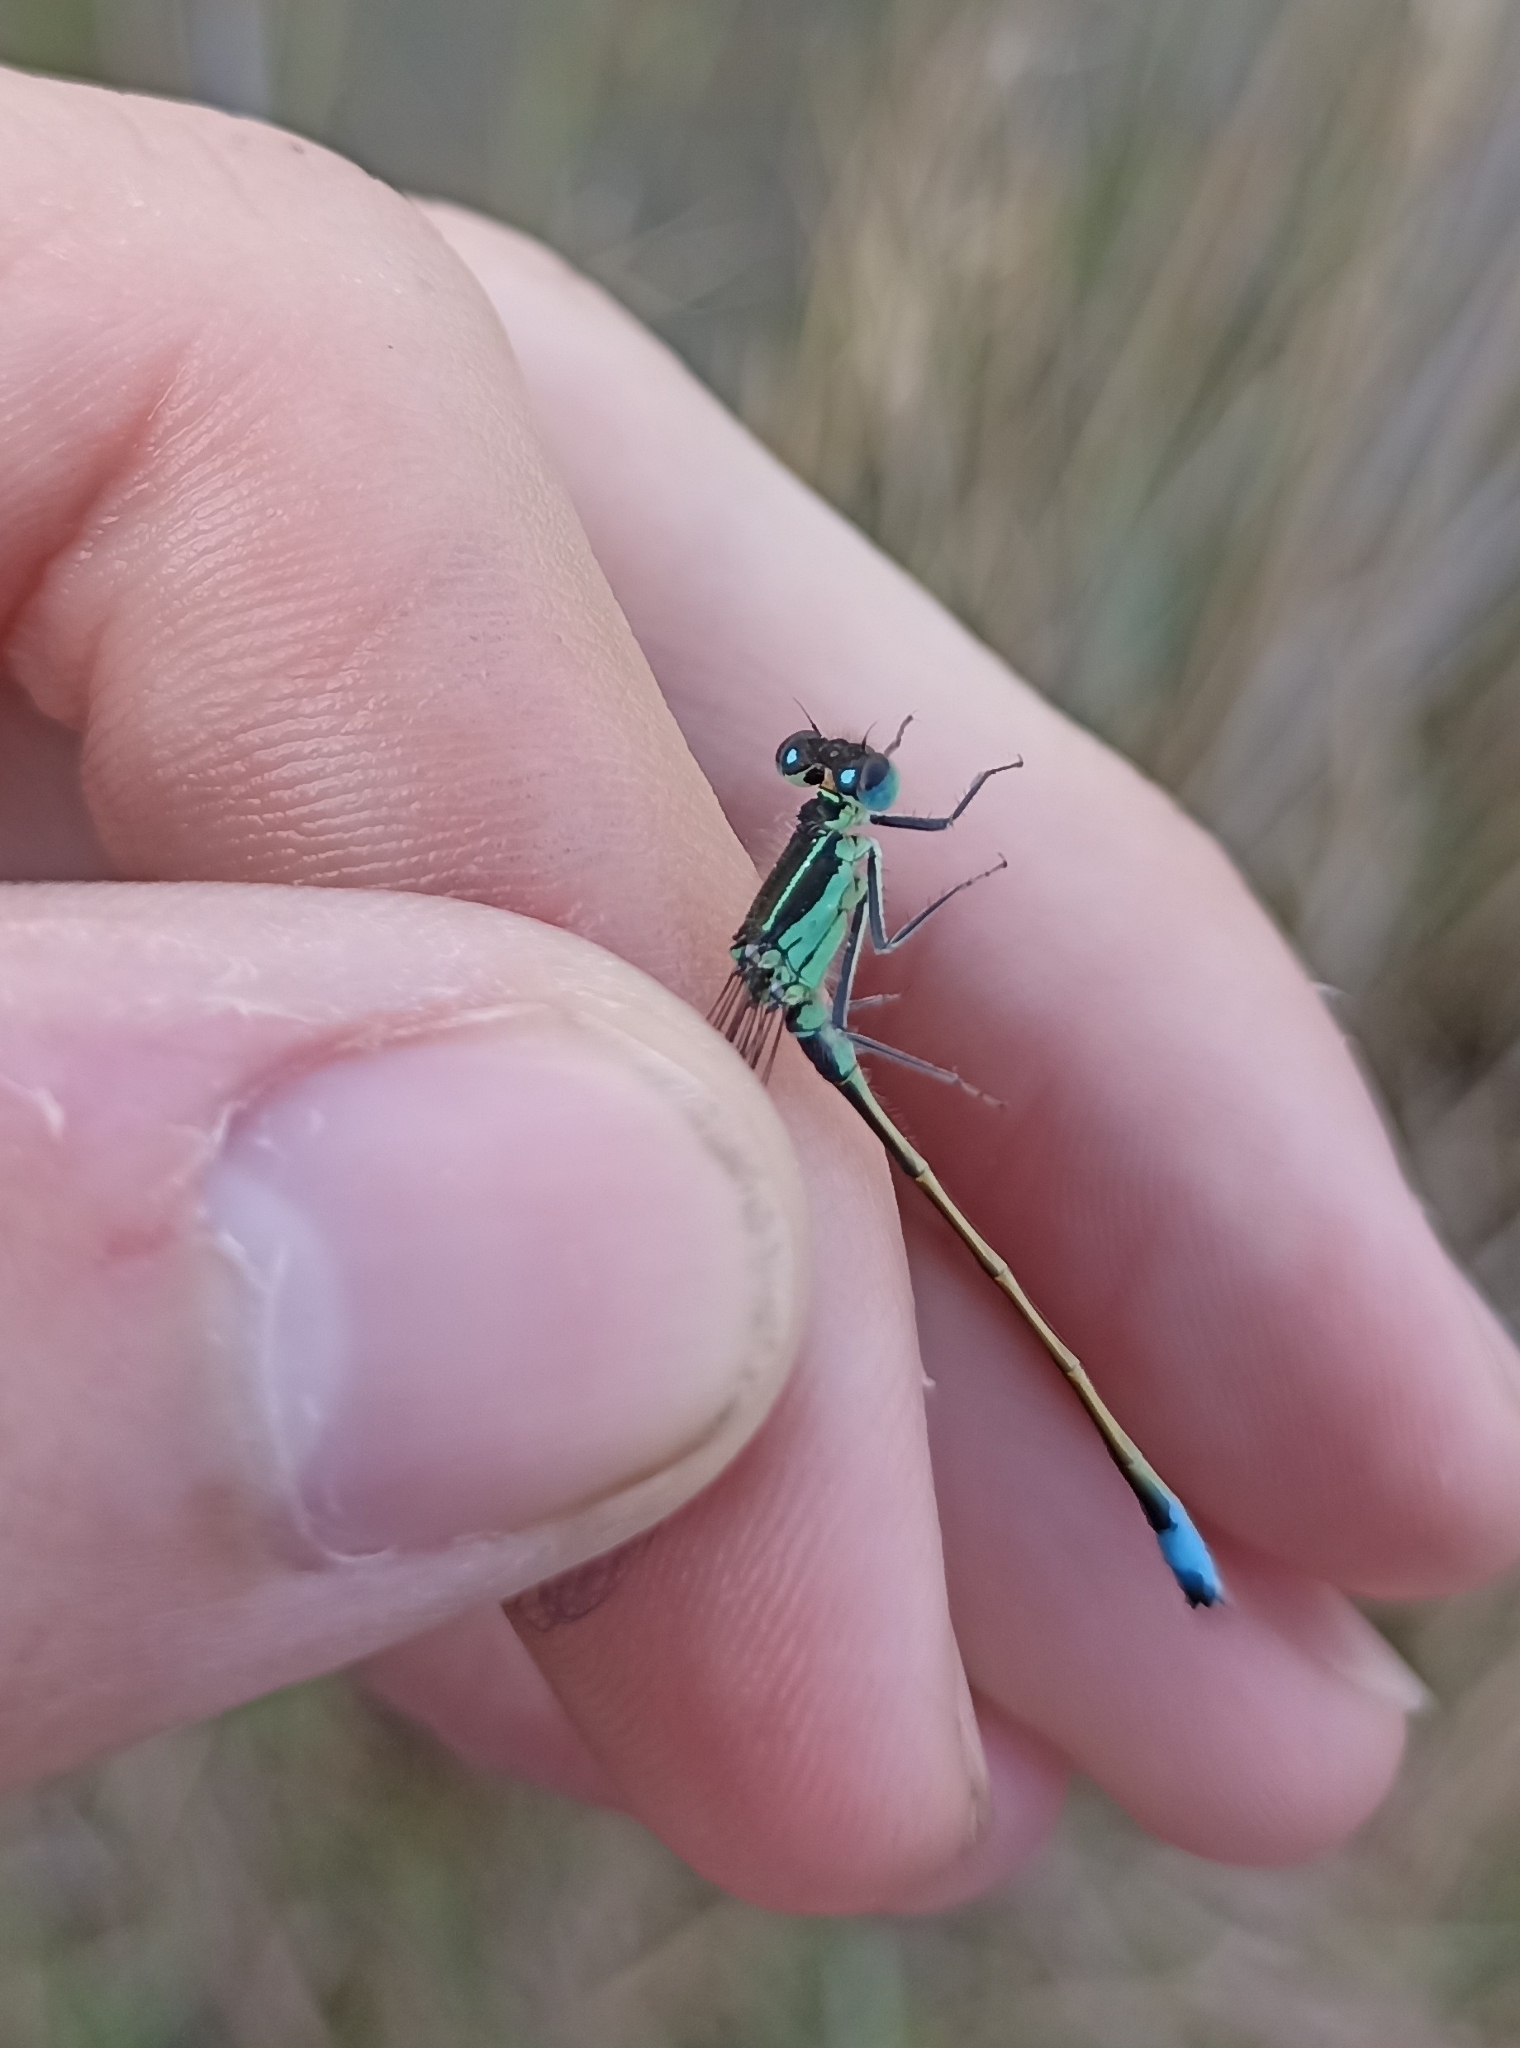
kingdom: Animalia
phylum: Arthropoda
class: Insecta
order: Odonata
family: Coenagrionidae
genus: Ischnura
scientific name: Ischnura elegans
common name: Blue-tailed damselfly
